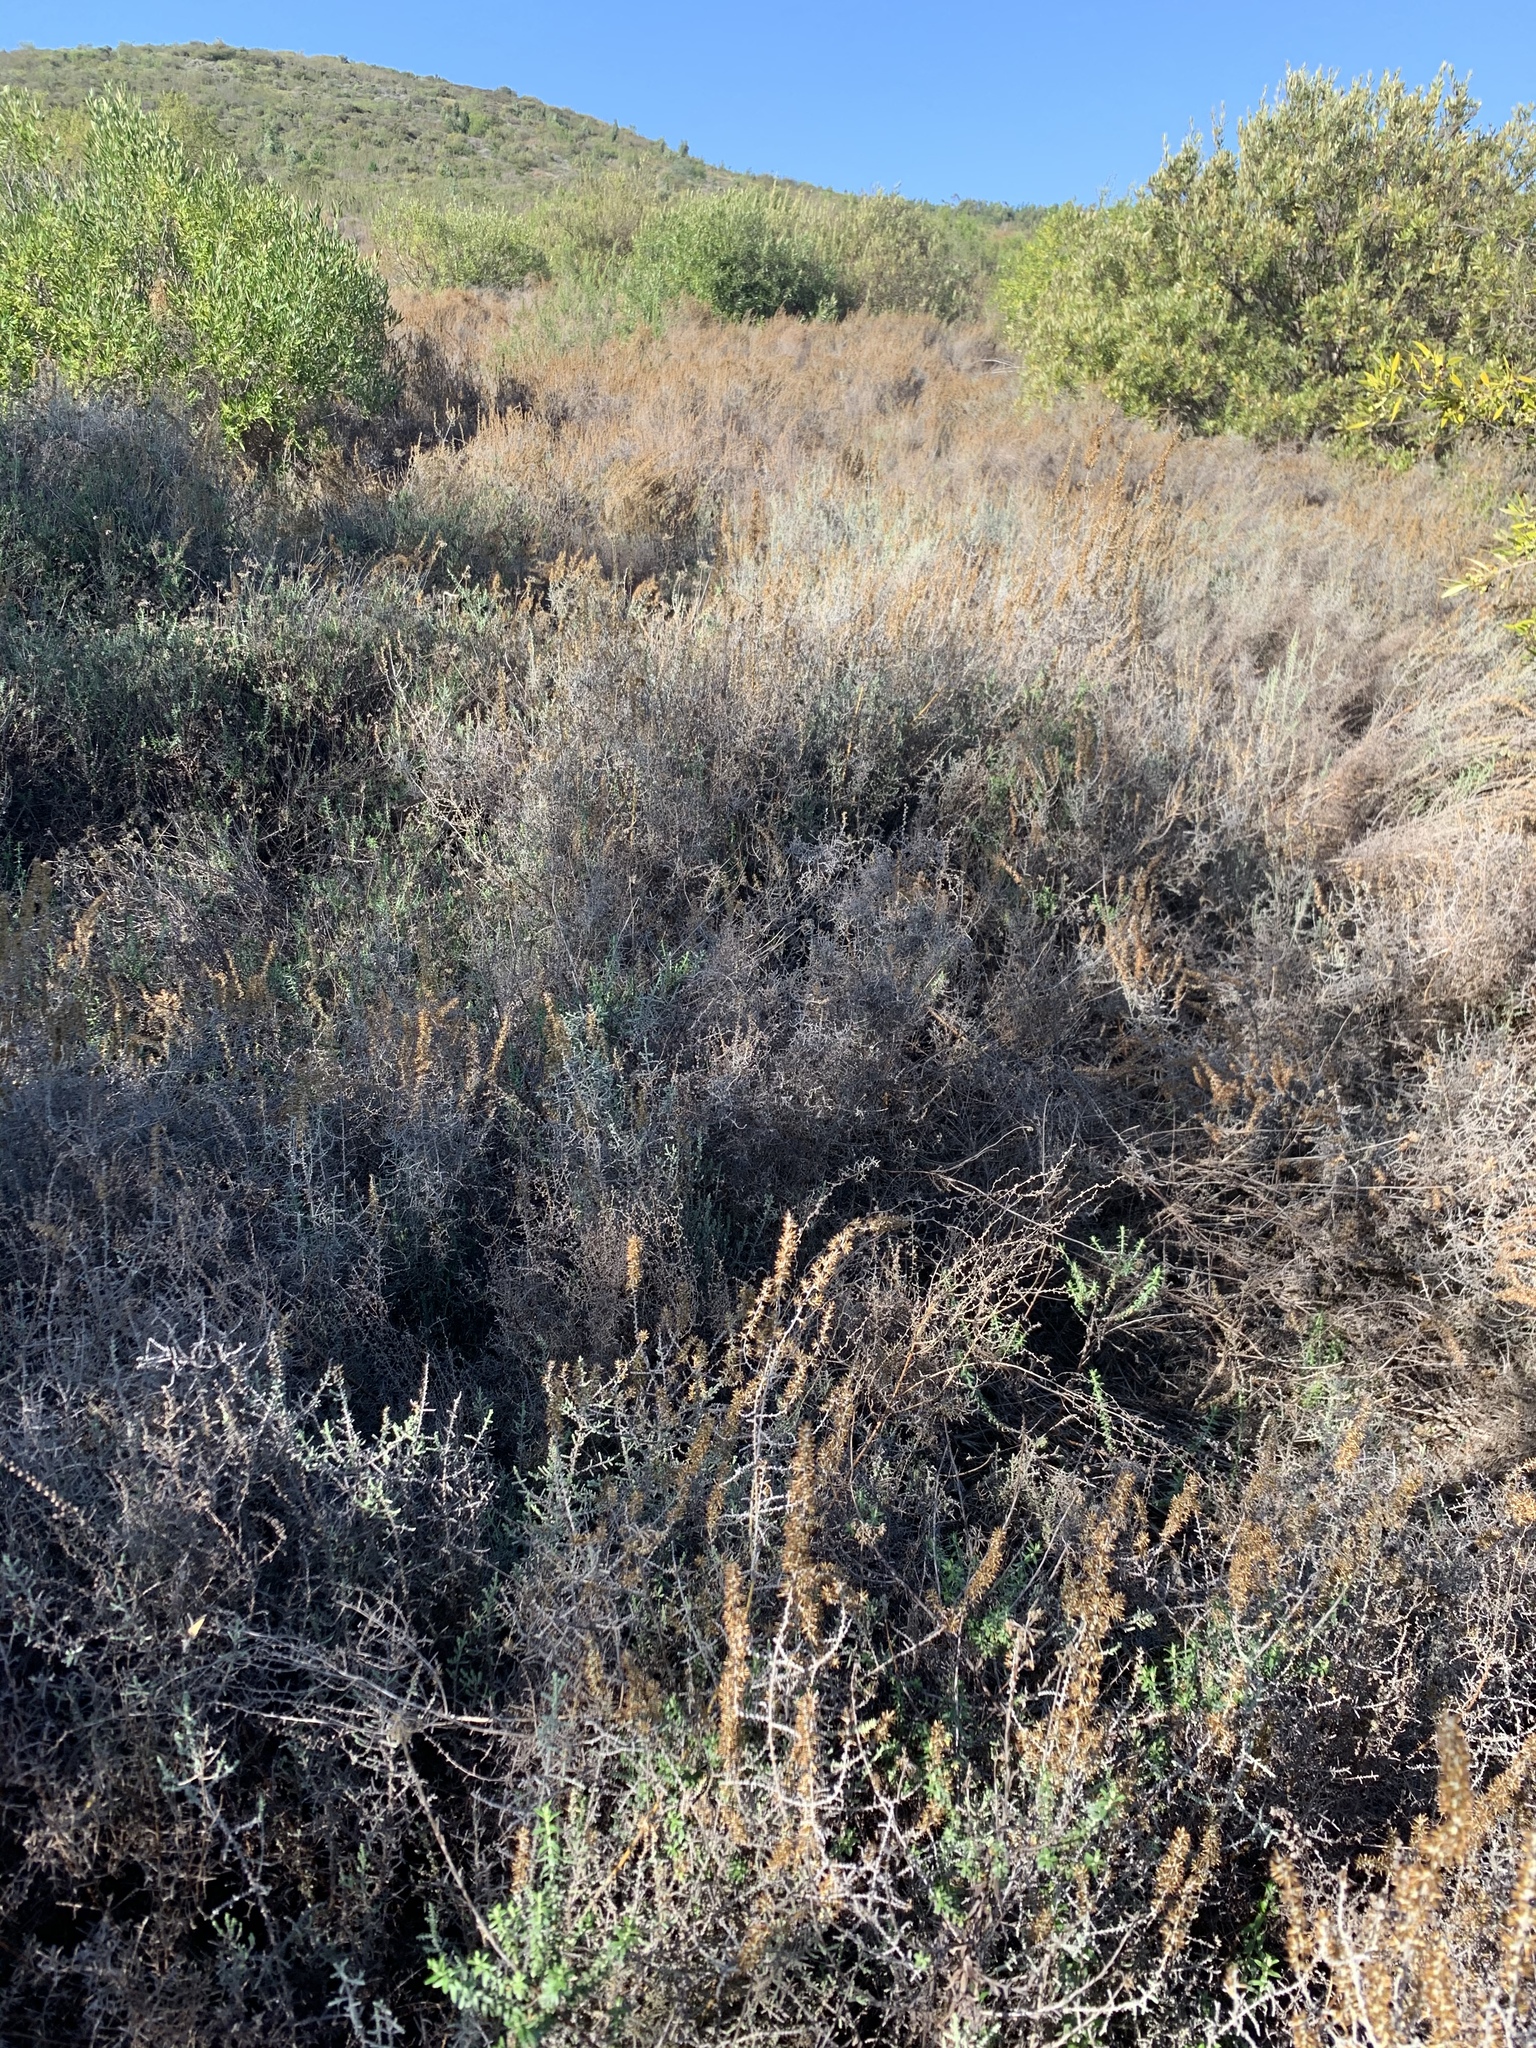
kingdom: Plantae
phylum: Tracheophyta
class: Magnoliopsida
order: Asterales
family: Asteraceae
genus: Seriphium
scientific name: Seriphium plumosum
